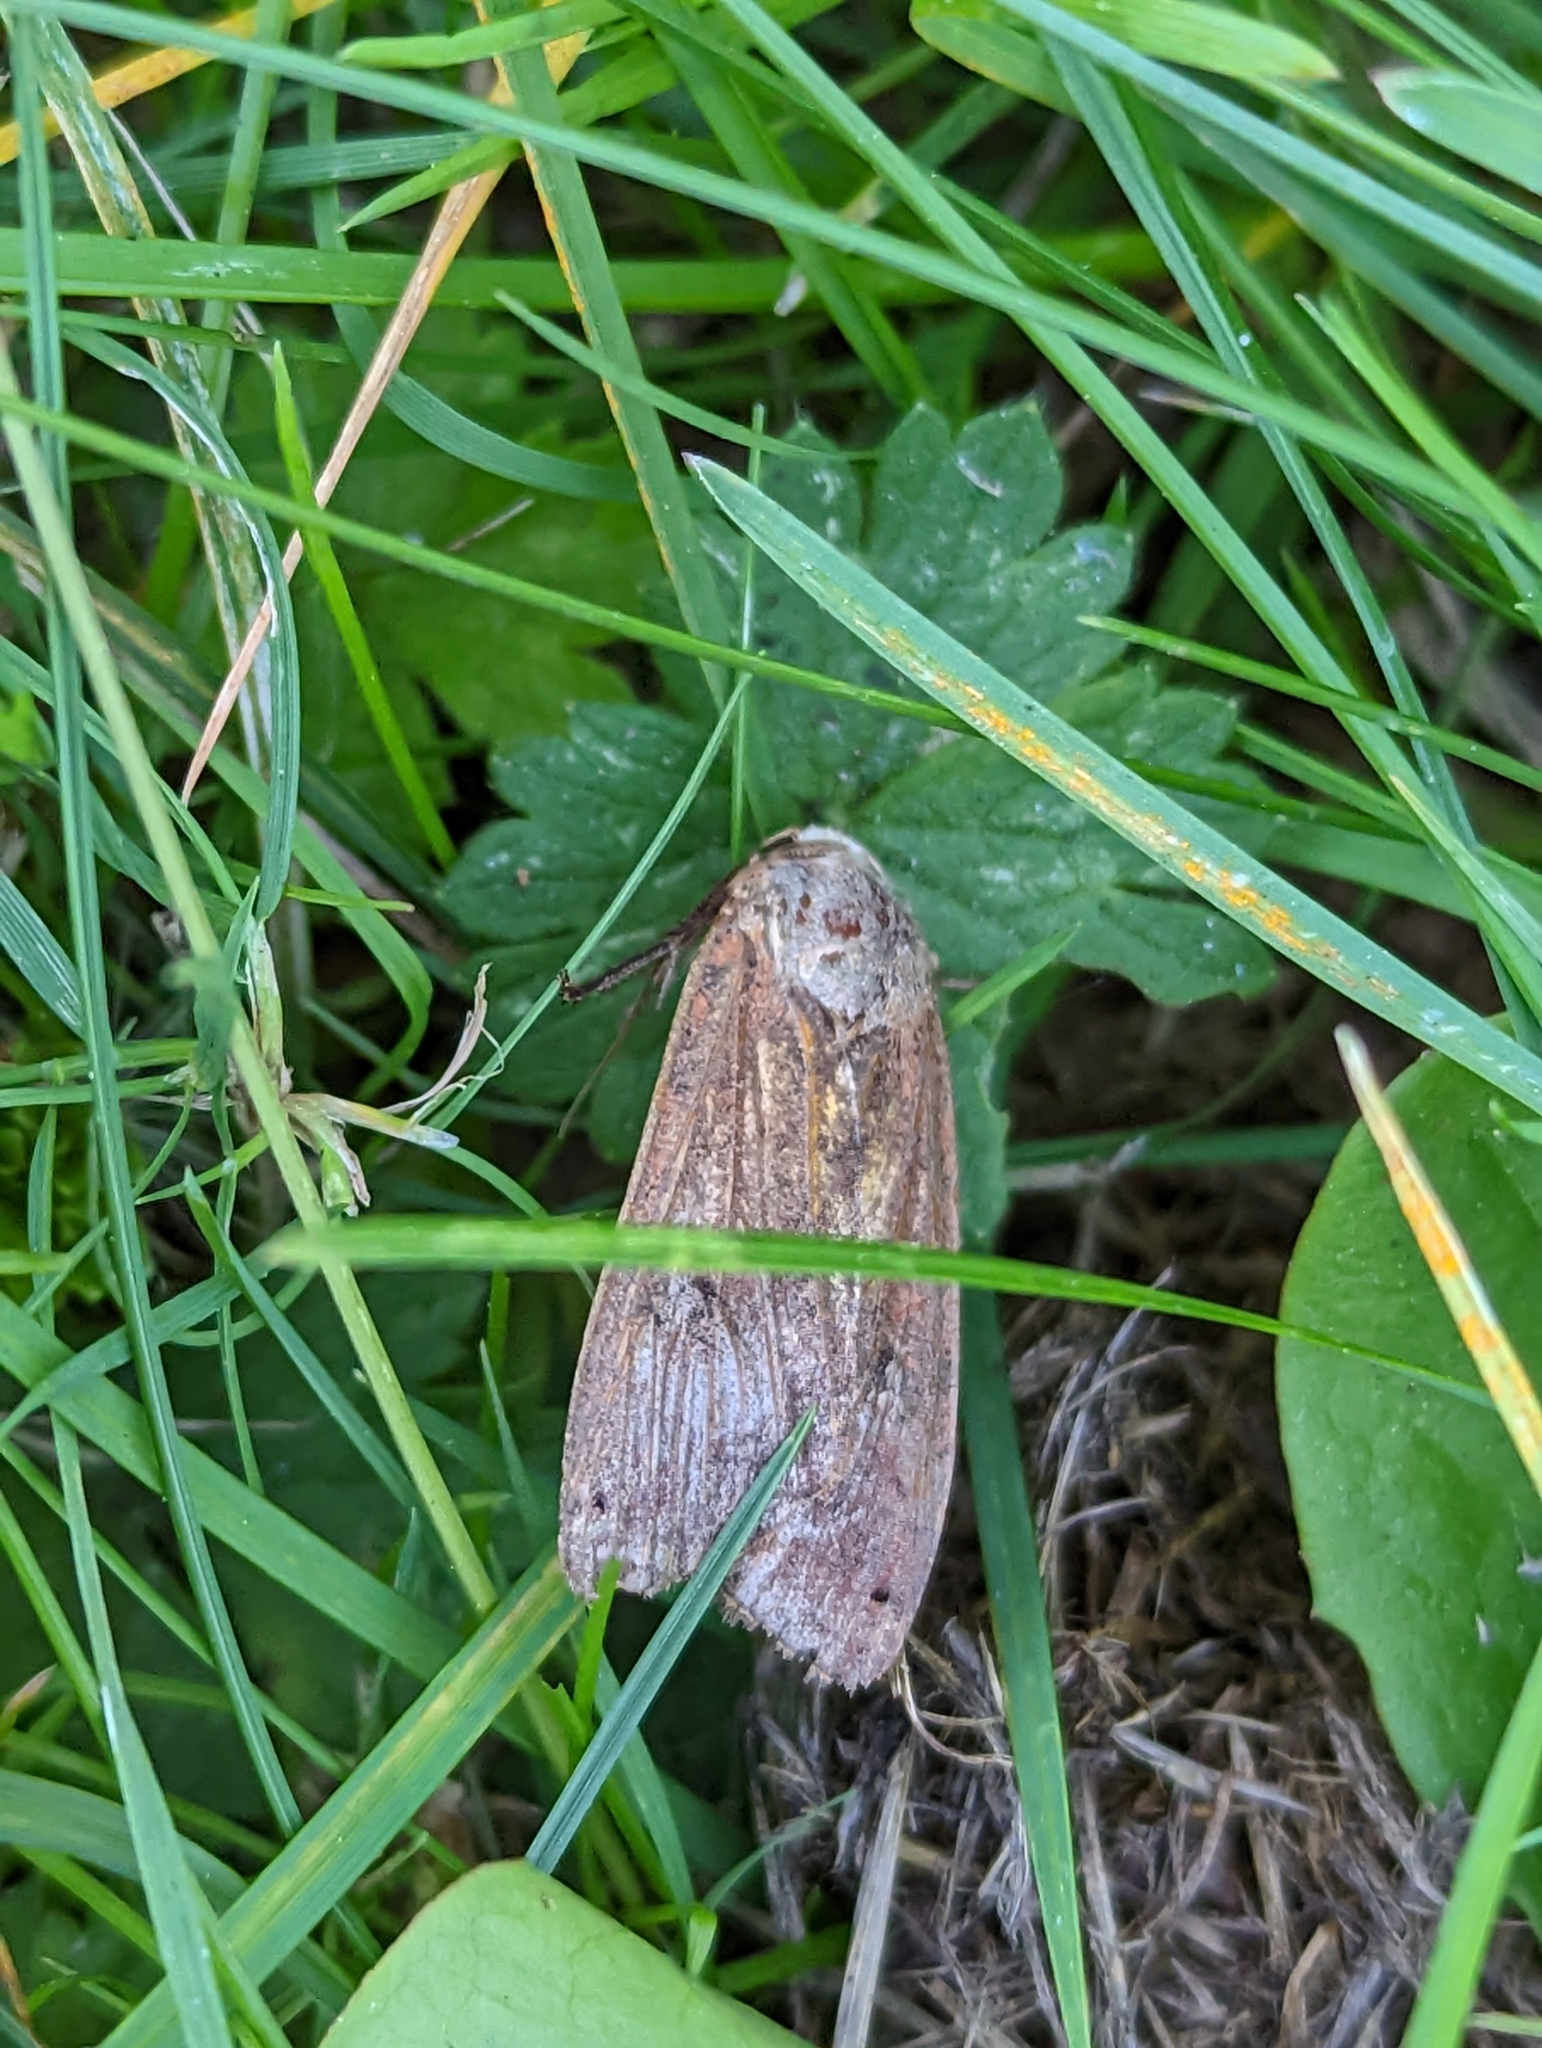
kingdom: Animalia
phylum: Arthropoda
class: Insecta
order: Lepidoptera
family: Noctuidae
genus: Noctua
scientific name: Noctua pronuba
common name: Large yellow underwing
